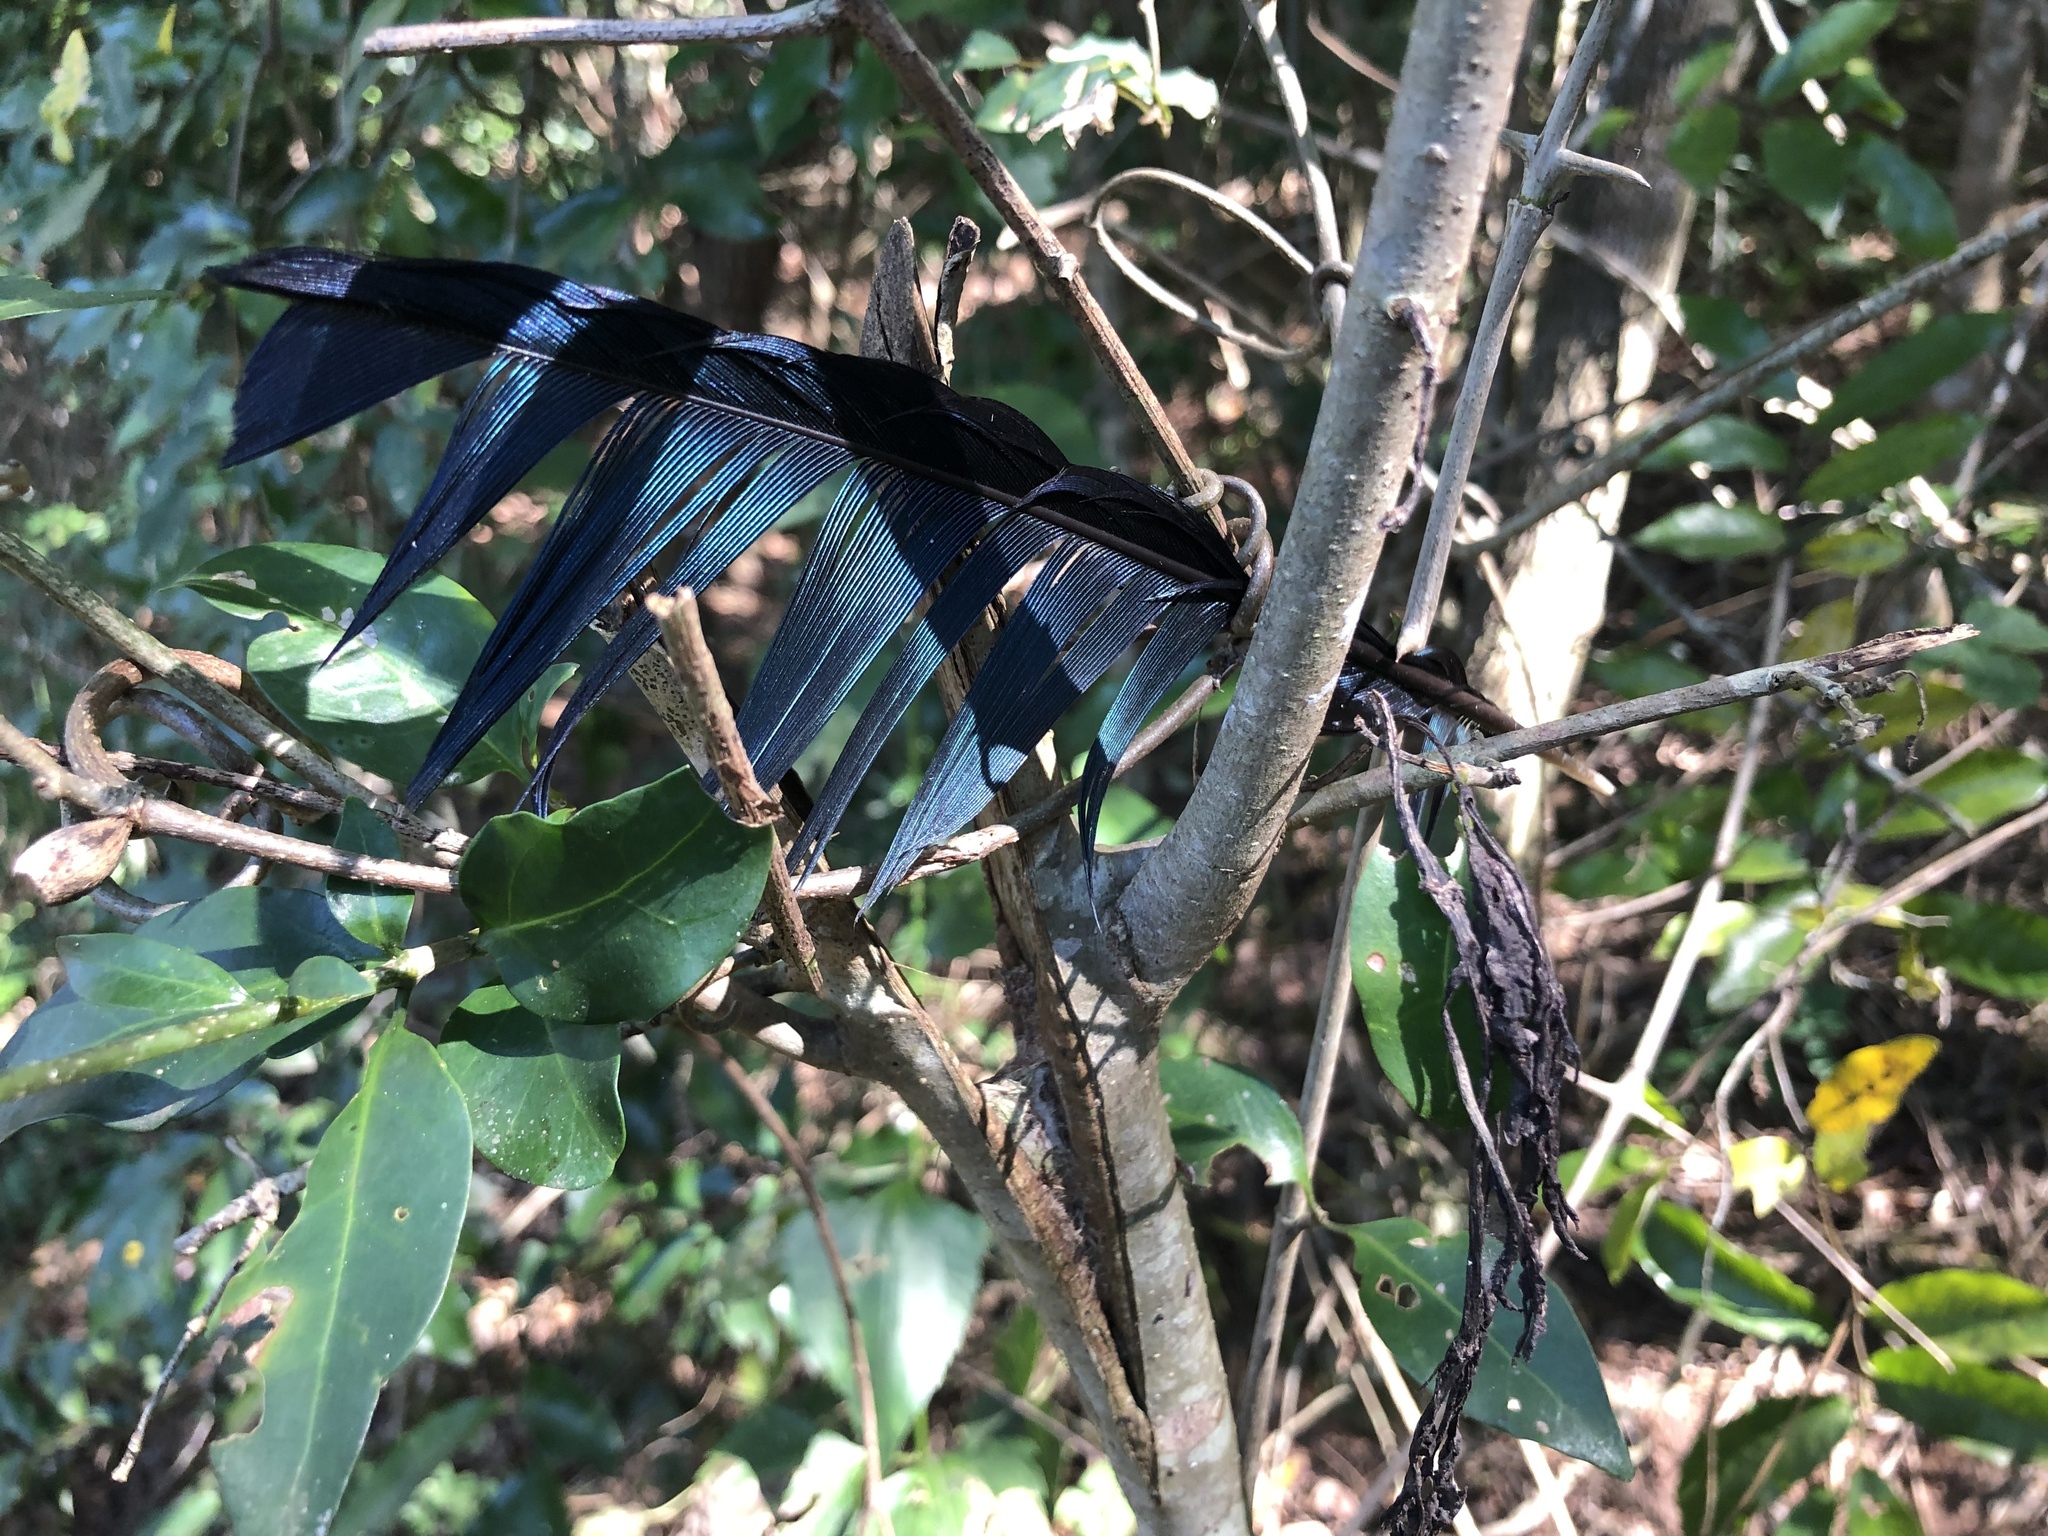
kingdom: Animalia
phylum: Chordata
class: Aves
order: Musophagiformes
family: Musophagidae
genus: Tauraco
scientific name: Tauraco porphyreolophus
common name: Purple-crested turaco
